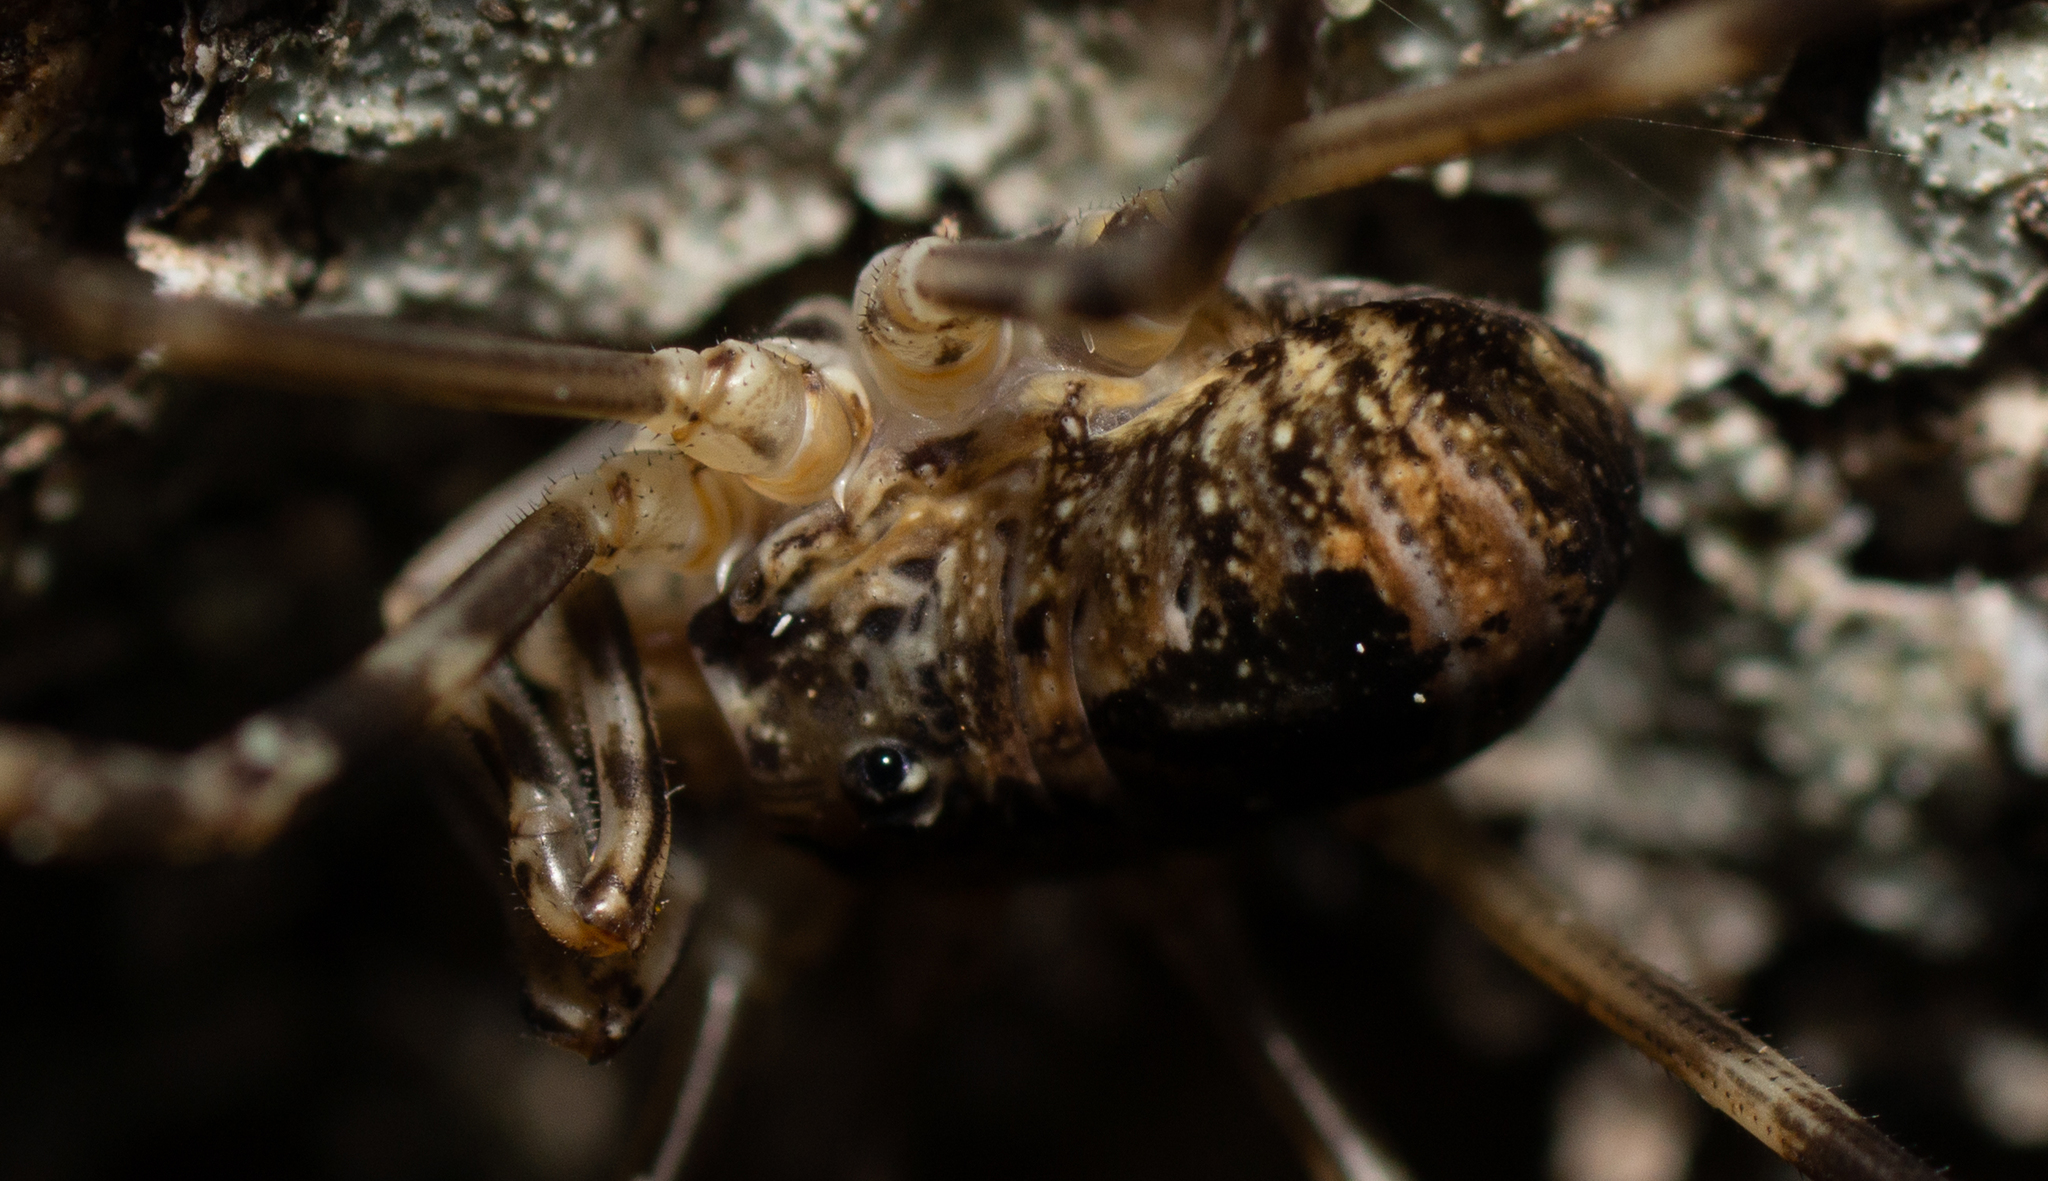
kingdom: Animalia
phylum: Arthropoda
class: Arachnida
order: Opiliones
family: Phalangiidae
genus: Dicranopalpus
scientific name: Dicranopalpus martini
